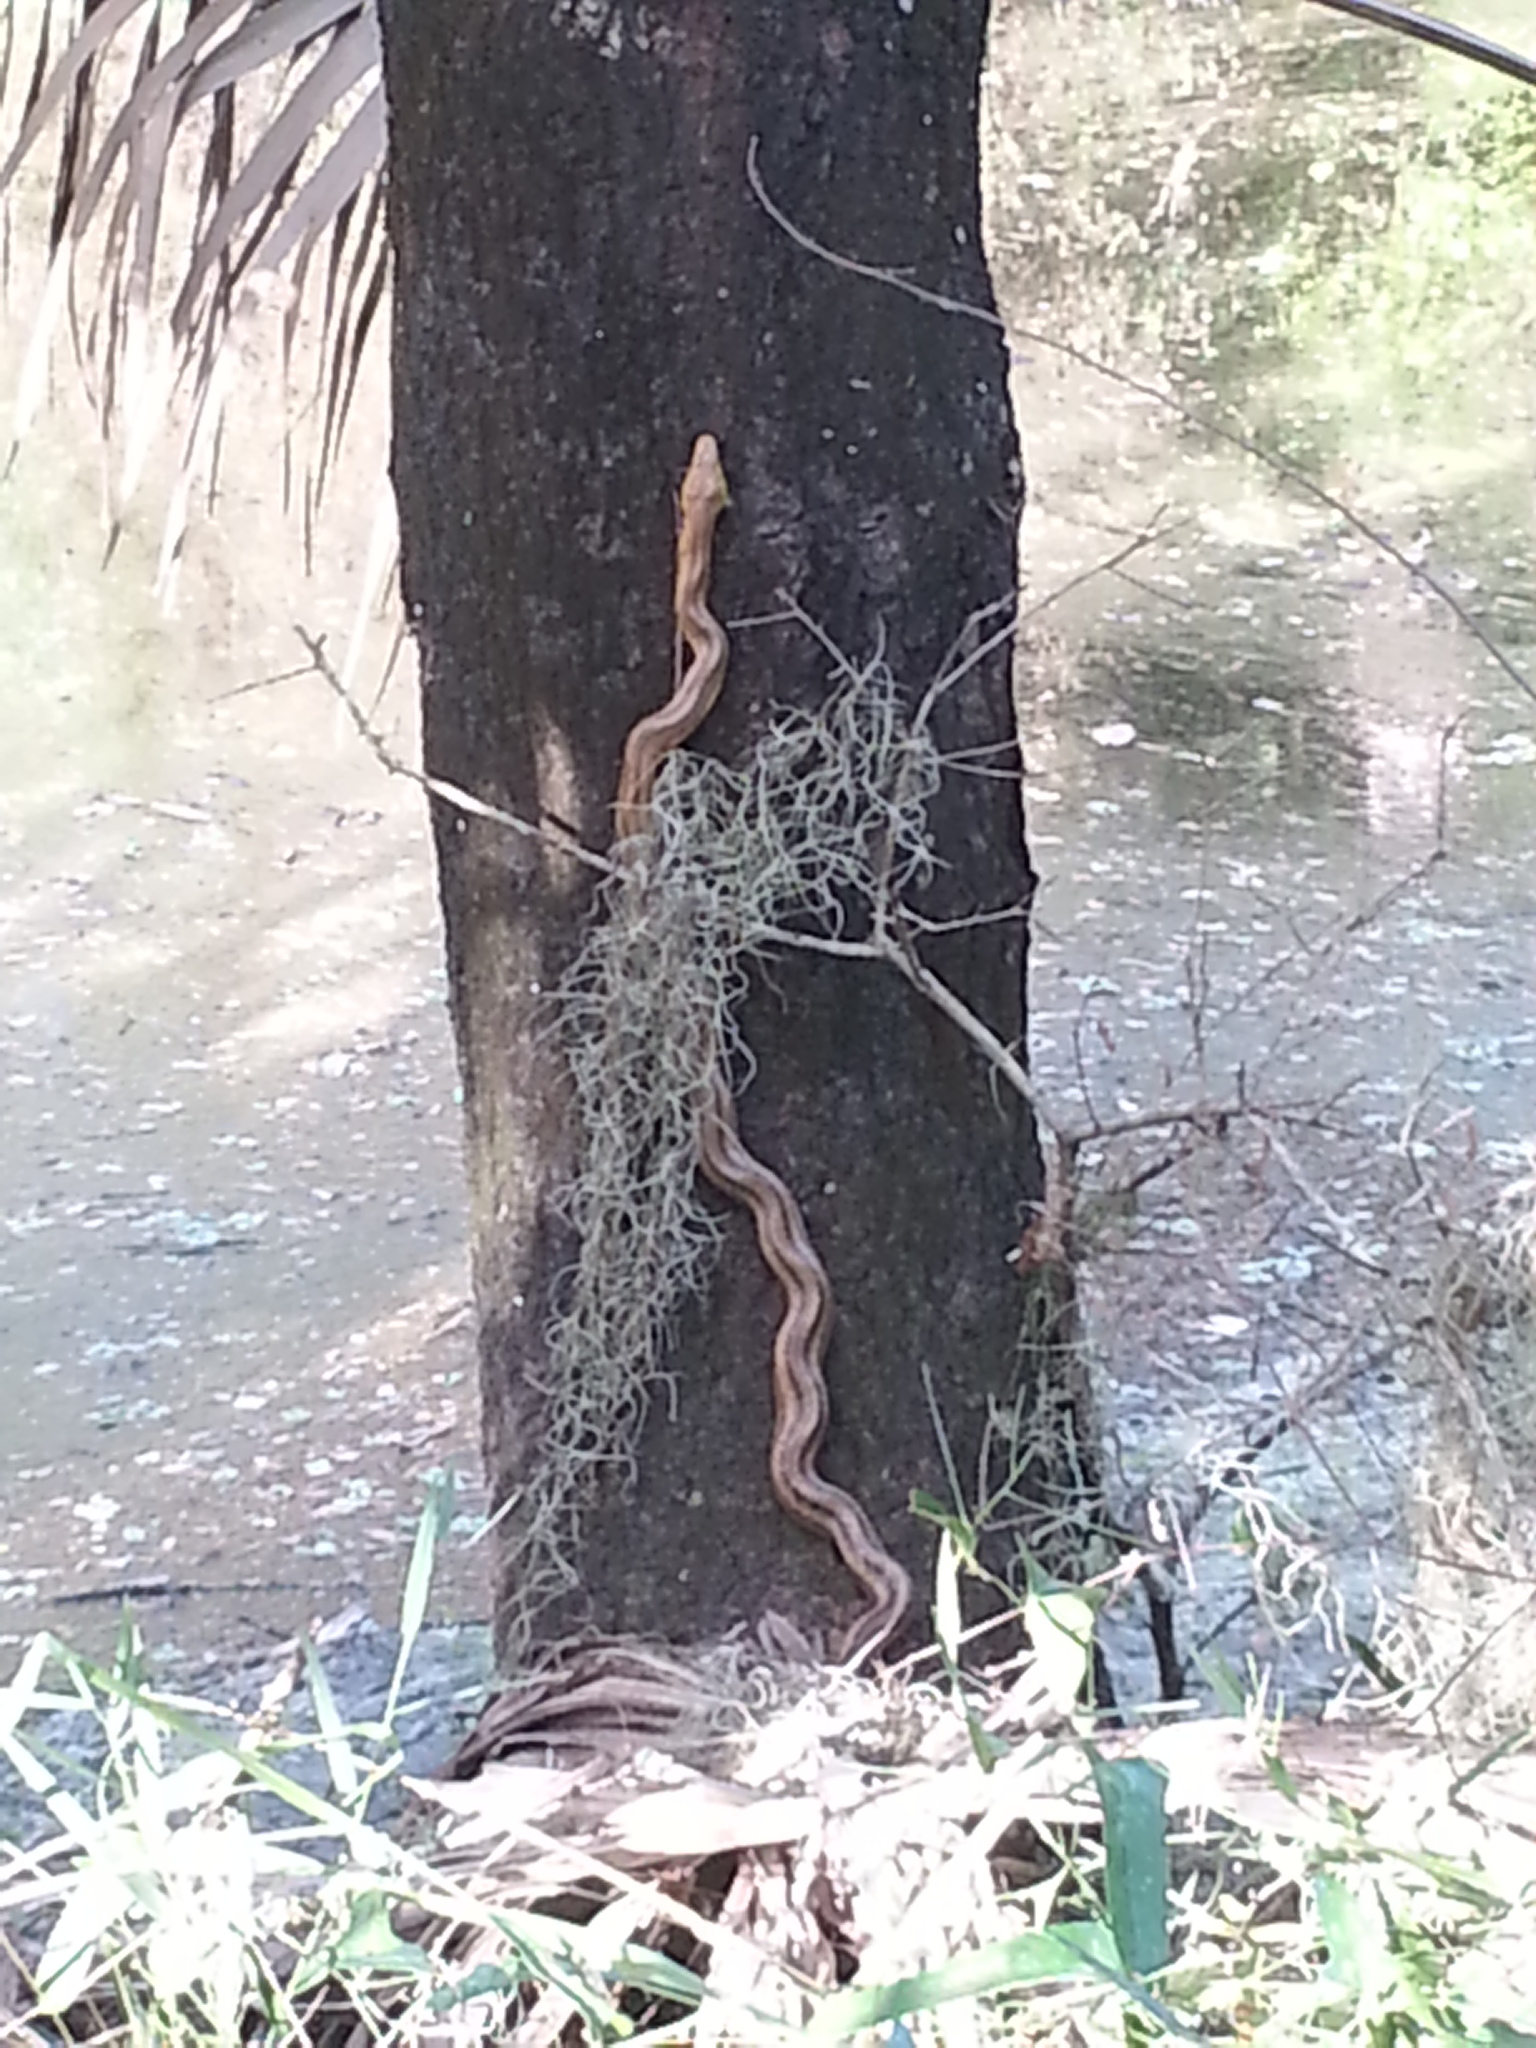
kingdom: Animalia
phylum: Chordata
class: Squamata
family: Colubridae
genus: Pantherophis
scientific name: Pantherophis alleghaniensis
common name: Eastern rat snake
